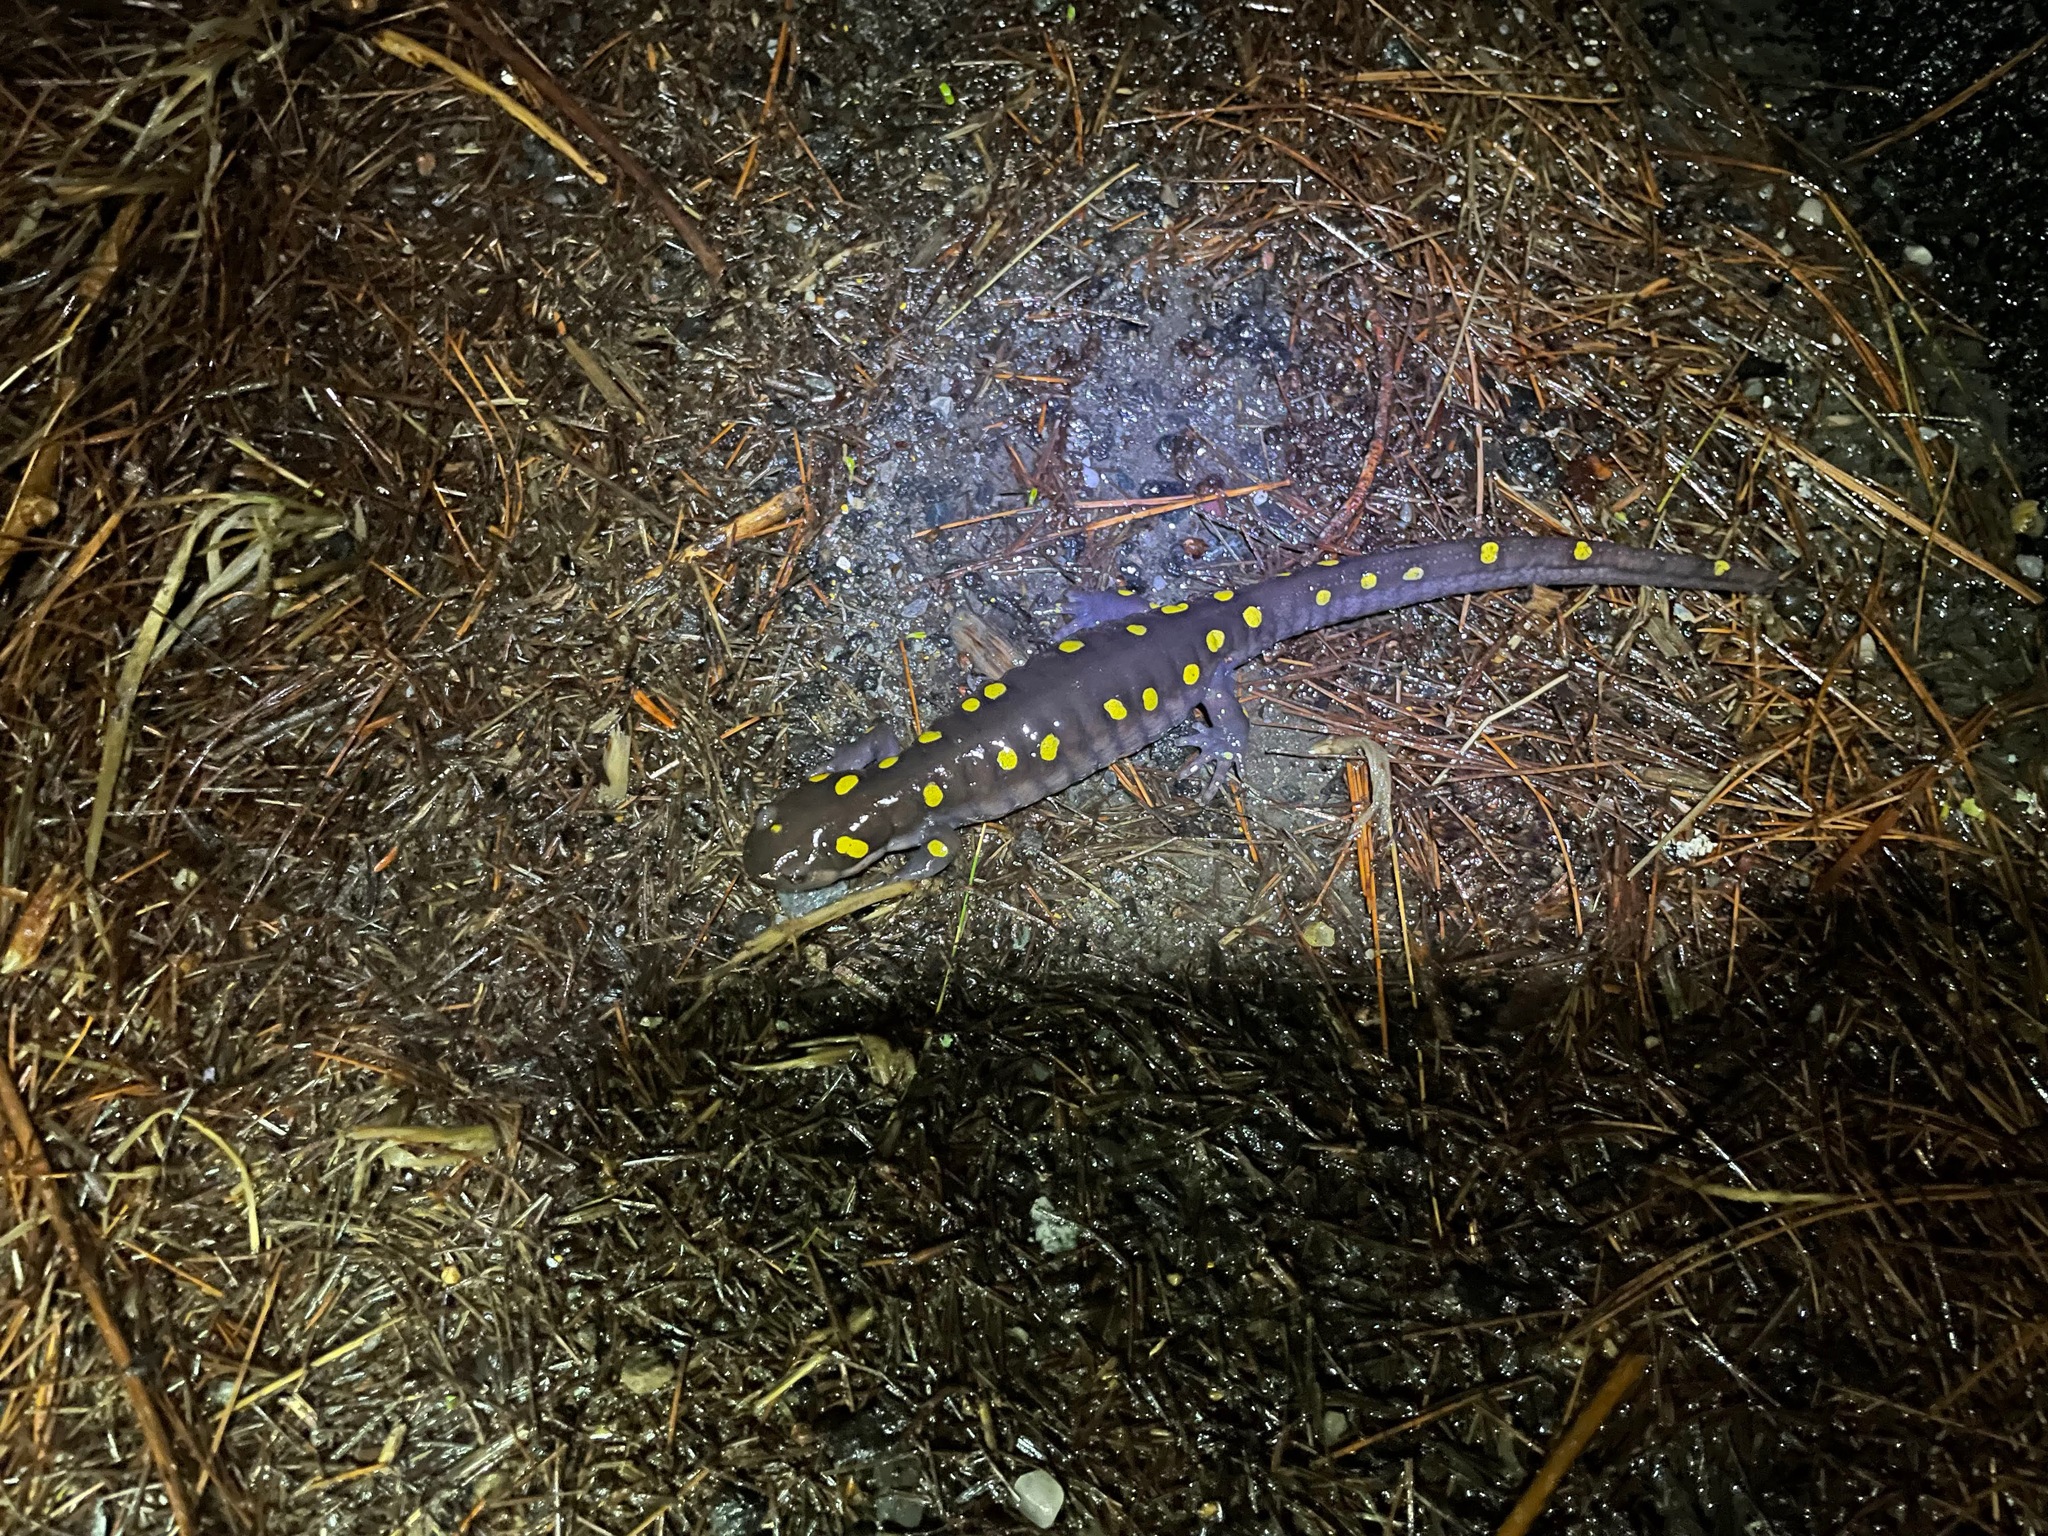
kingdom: Animalia
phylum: Chordata
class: Amphibia
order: Caudata
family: Ambystomatidae
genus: Ambystoma
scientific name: Ambystoma maculatum
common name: Spotted salamander
